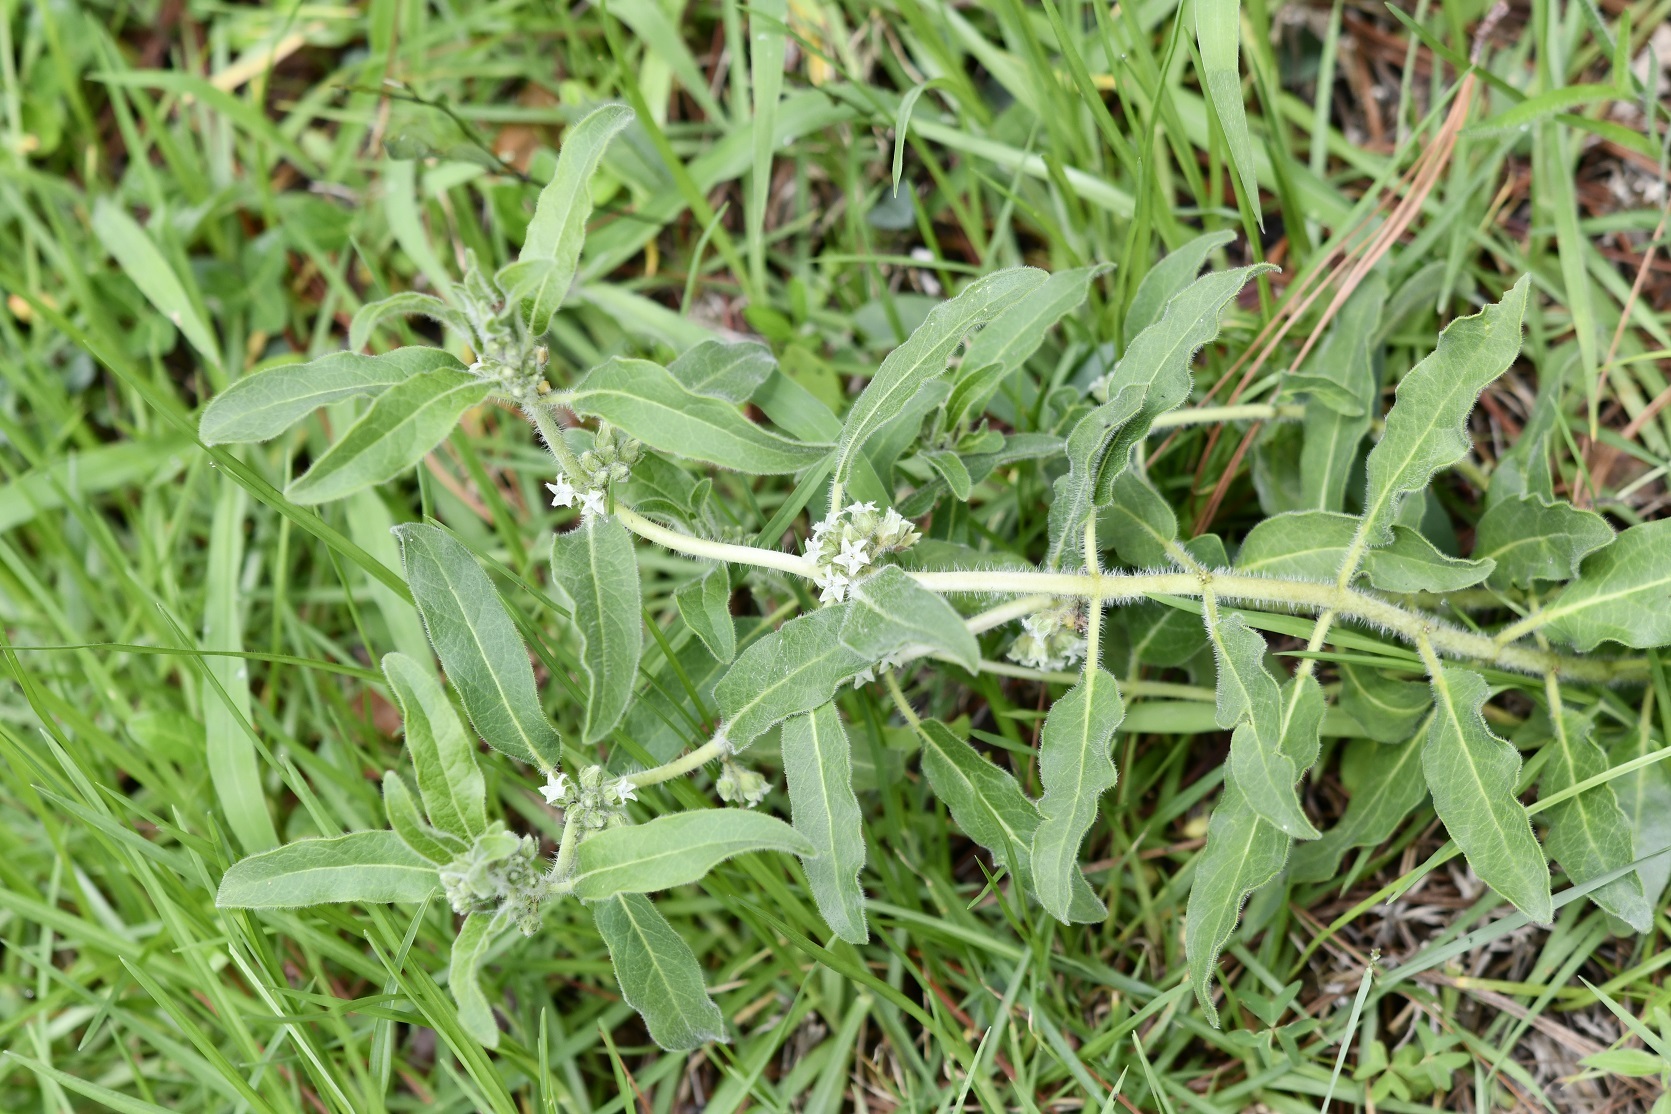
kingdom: Plantae
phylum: Tracheophyta
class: Magnoliopsida
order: Gentianales
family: Apocynaceae
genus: Pherotrichis
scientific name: Pherotrichis villosa
